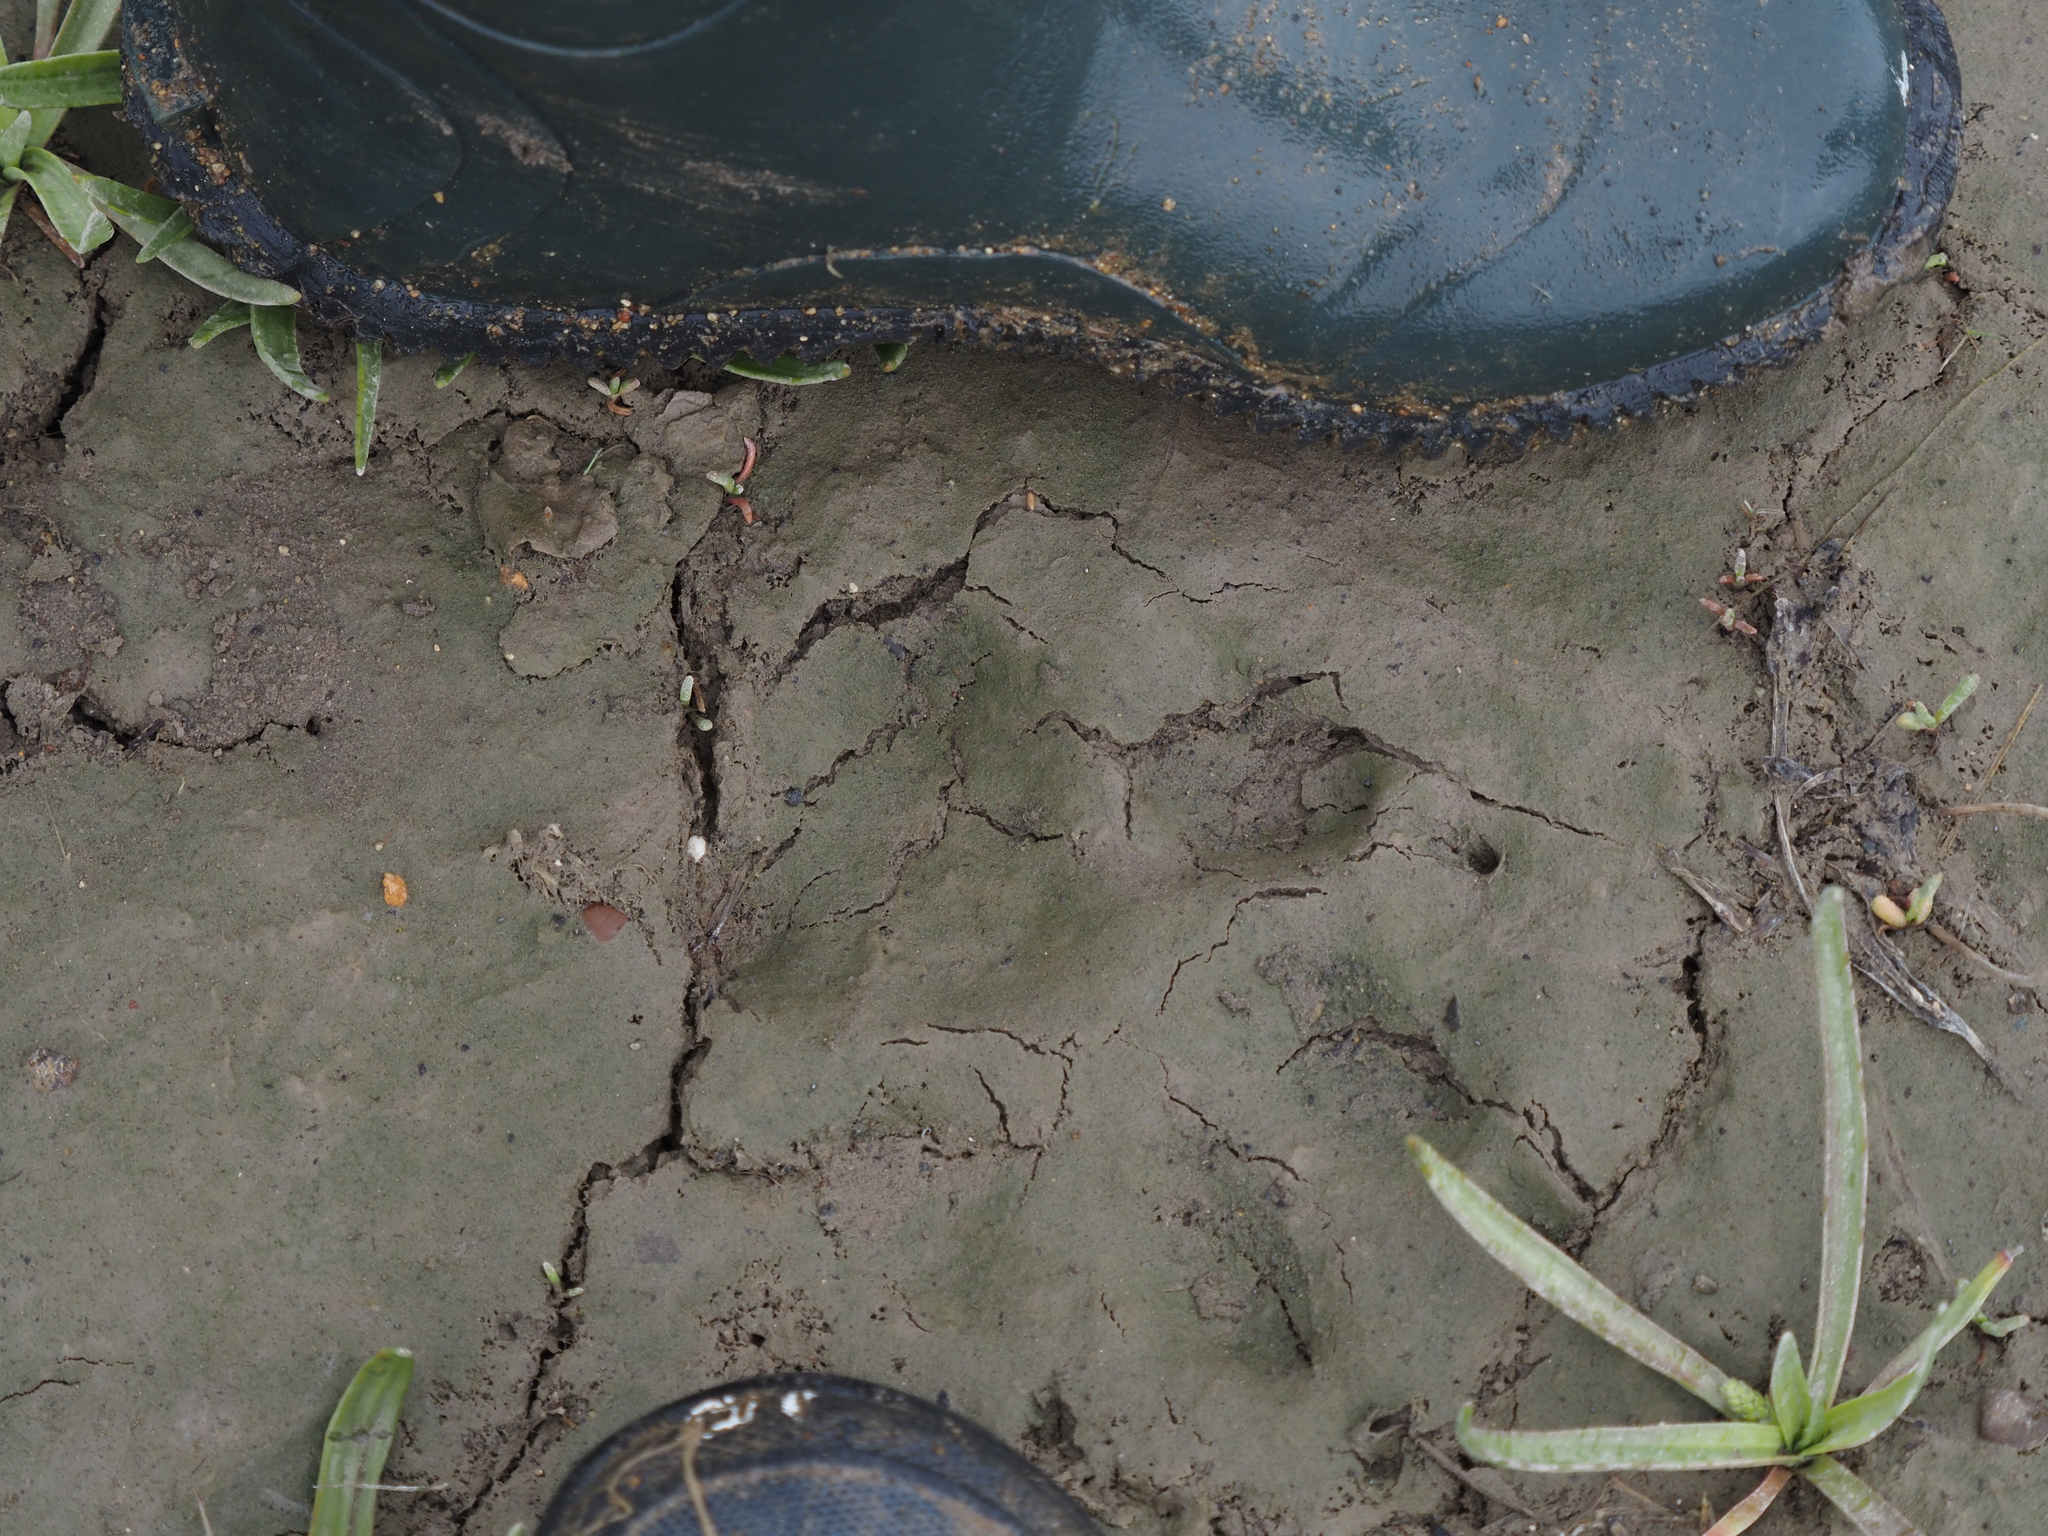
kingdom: Animalia
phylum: Chordata
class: Mammalia
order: Carnivora
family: Canidae
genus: Canis
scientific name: Canis lupus
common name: Gray wolf
